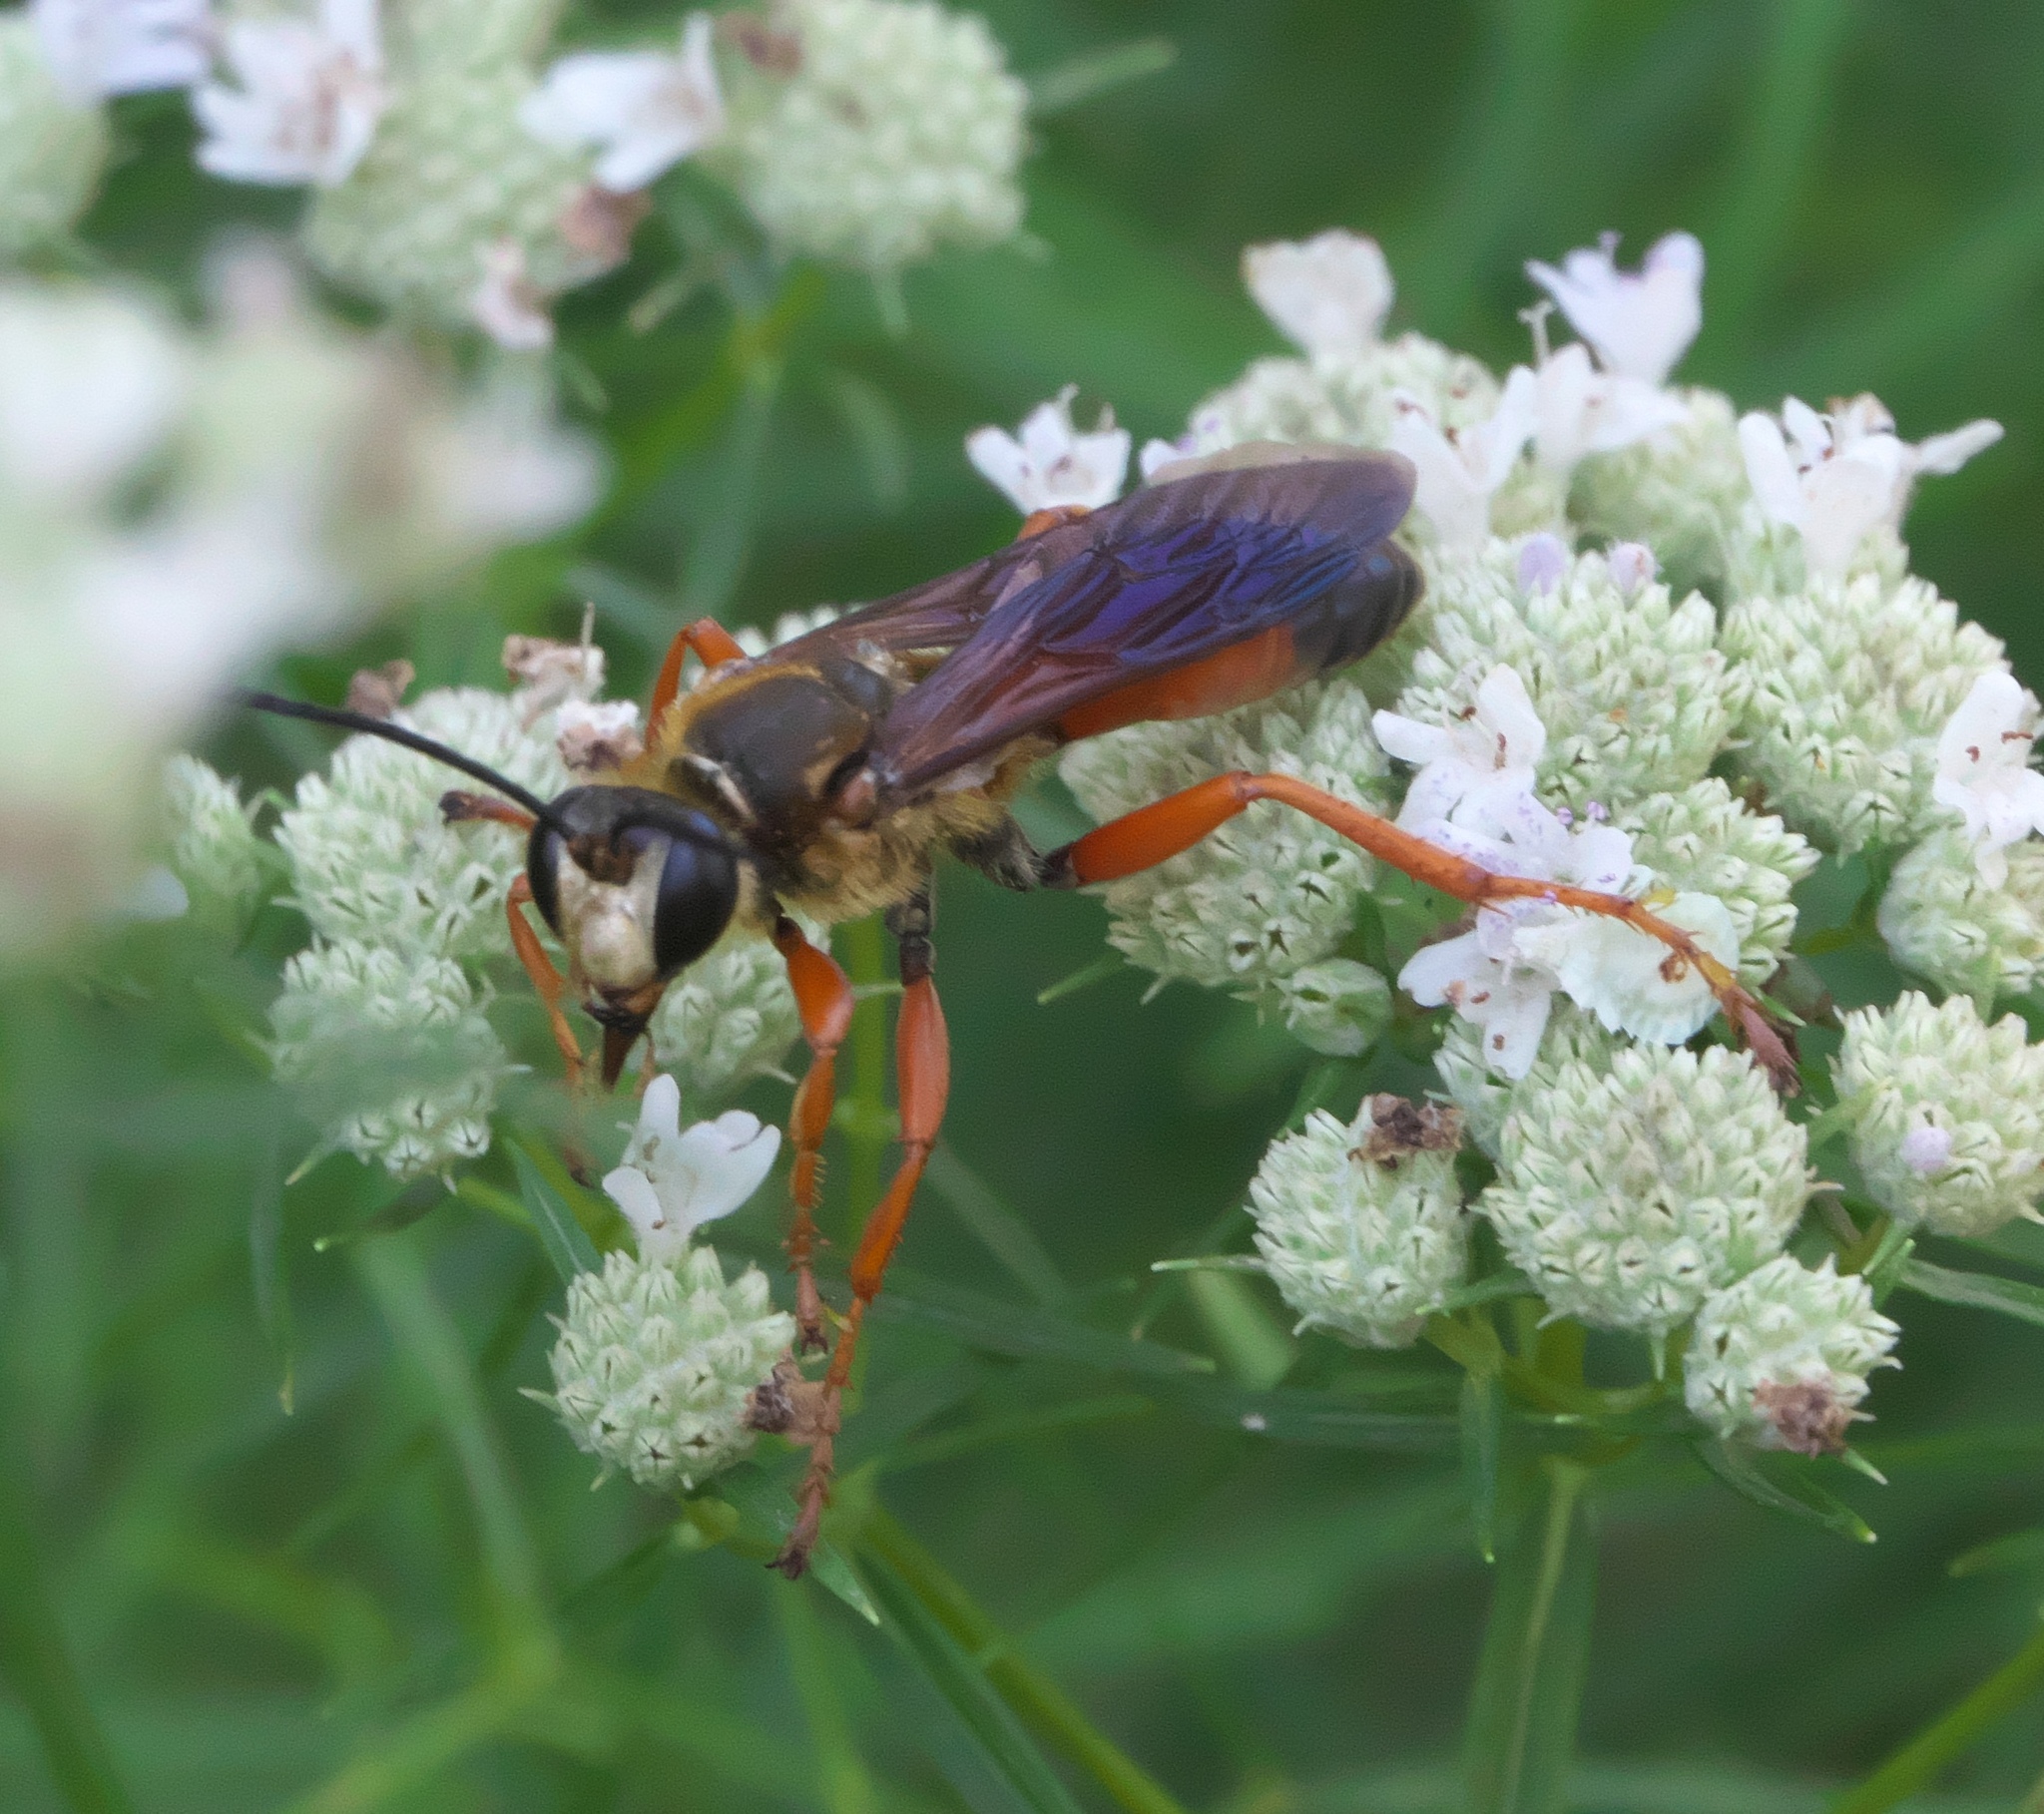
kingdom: Animalia
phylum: Arthropoda
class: Insecta
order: Hymenoptera
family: Sphecidae
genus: Sphex
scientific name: Sphex ichneumoneus
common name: Great golden digger wasp
